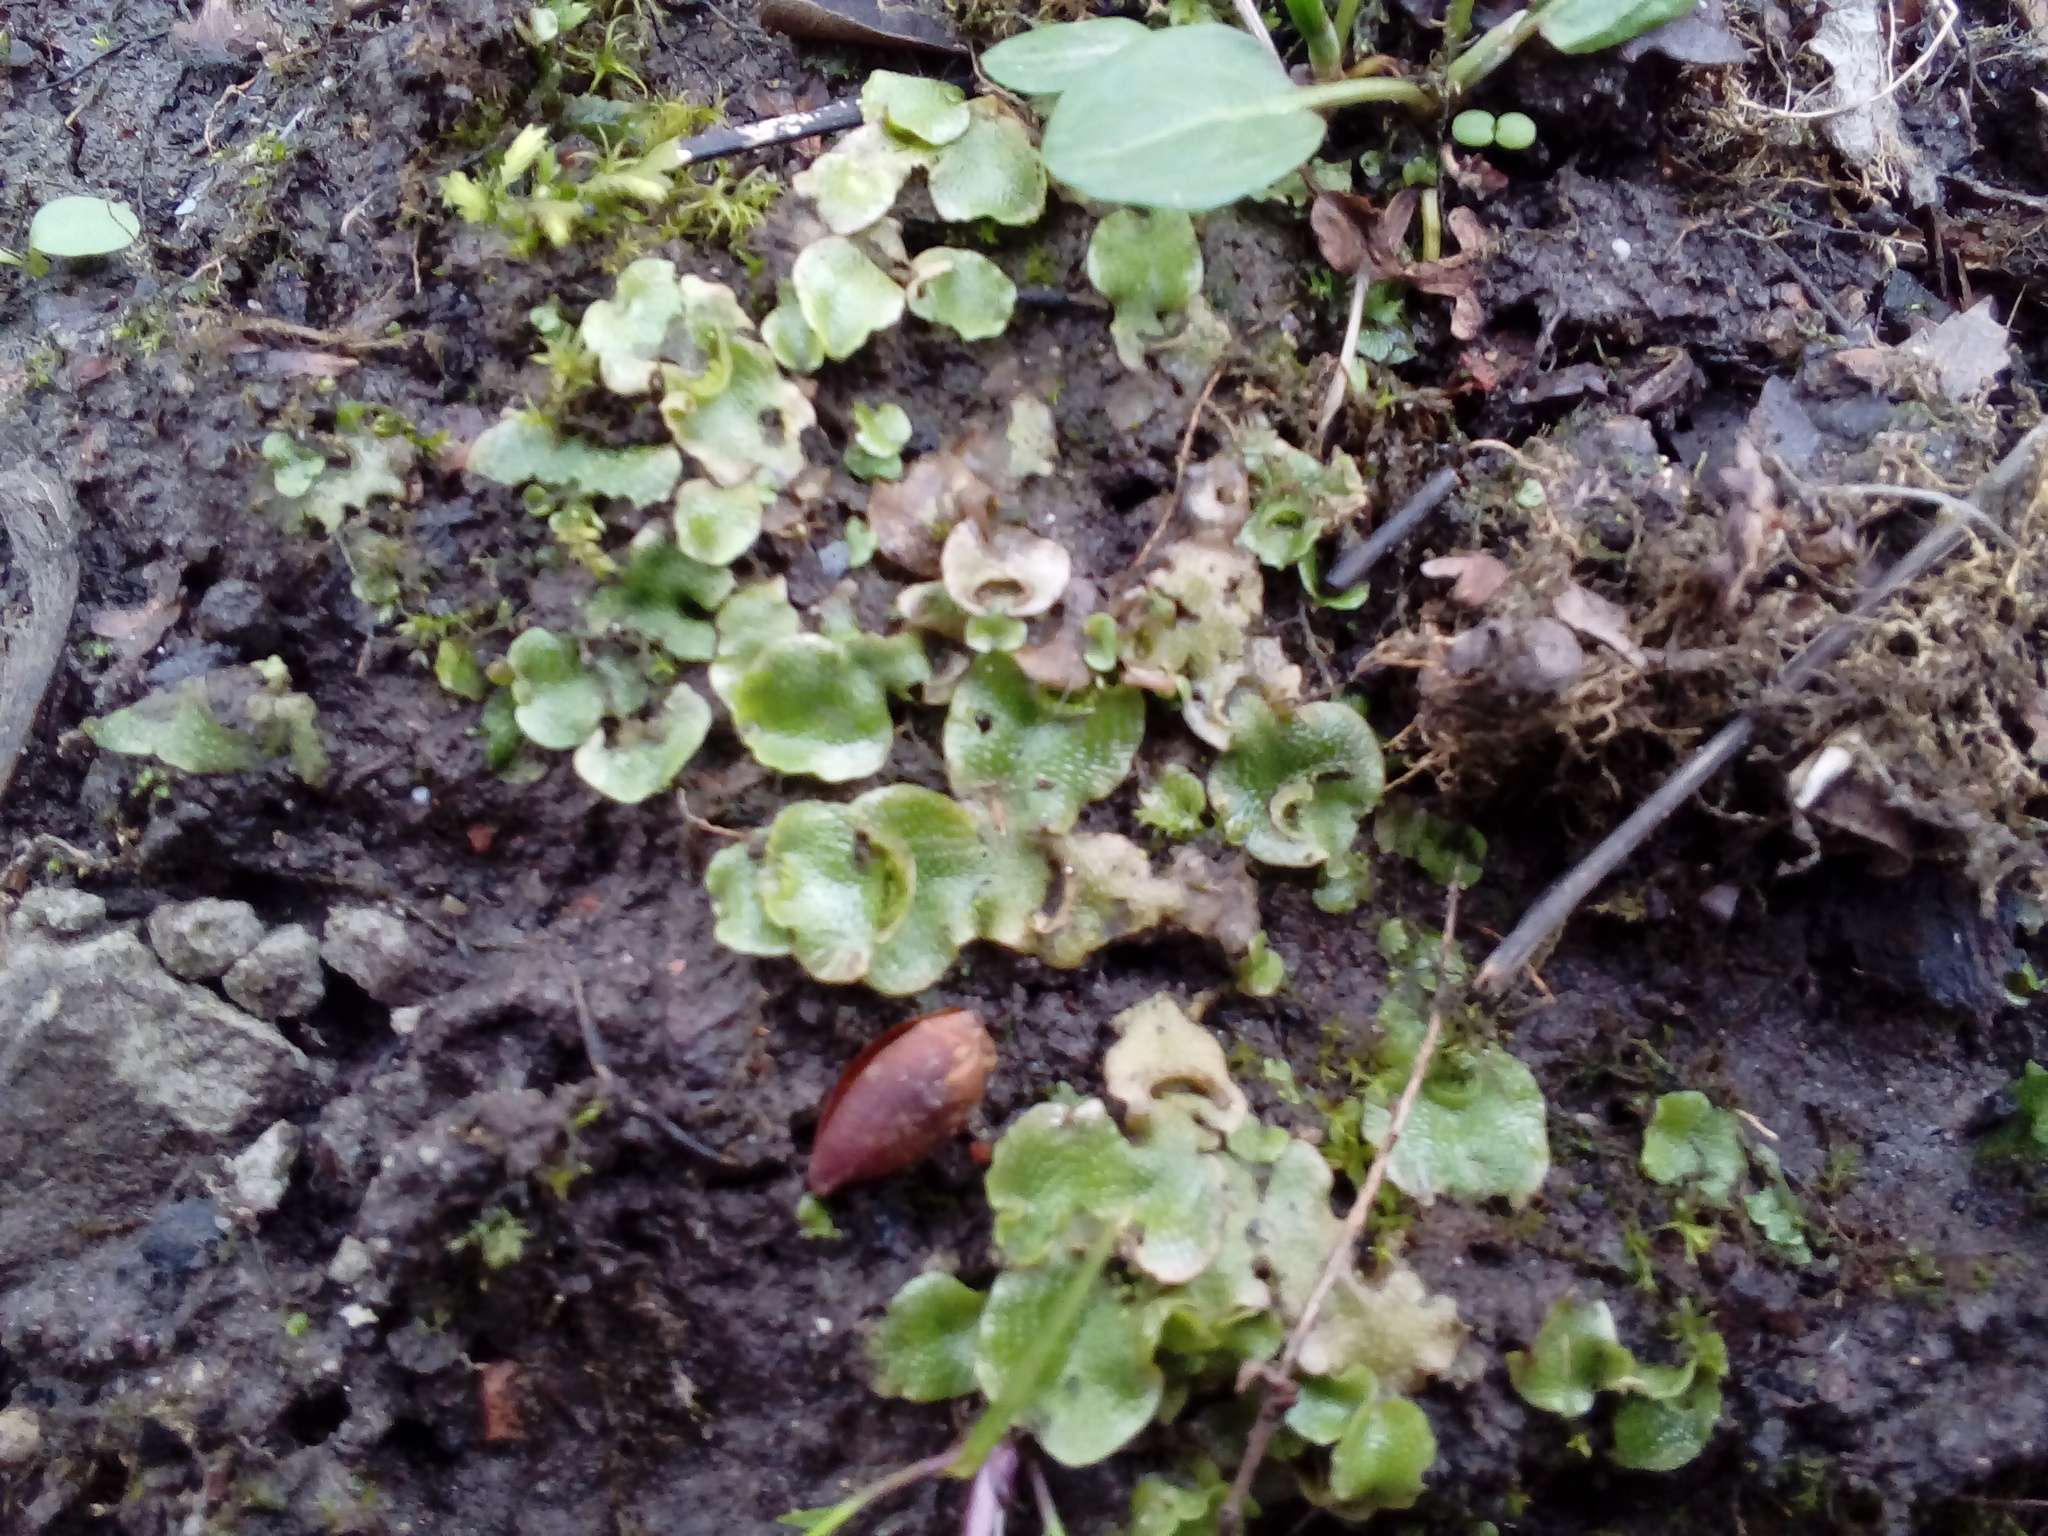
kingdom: Plantae
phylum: Marchantiophyta
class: Marchantiopsida
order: Lunulariales
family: Lunulariaceae
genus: Lunularia
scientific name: Lunularia cruciata
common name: Crescent-cup liverwort
